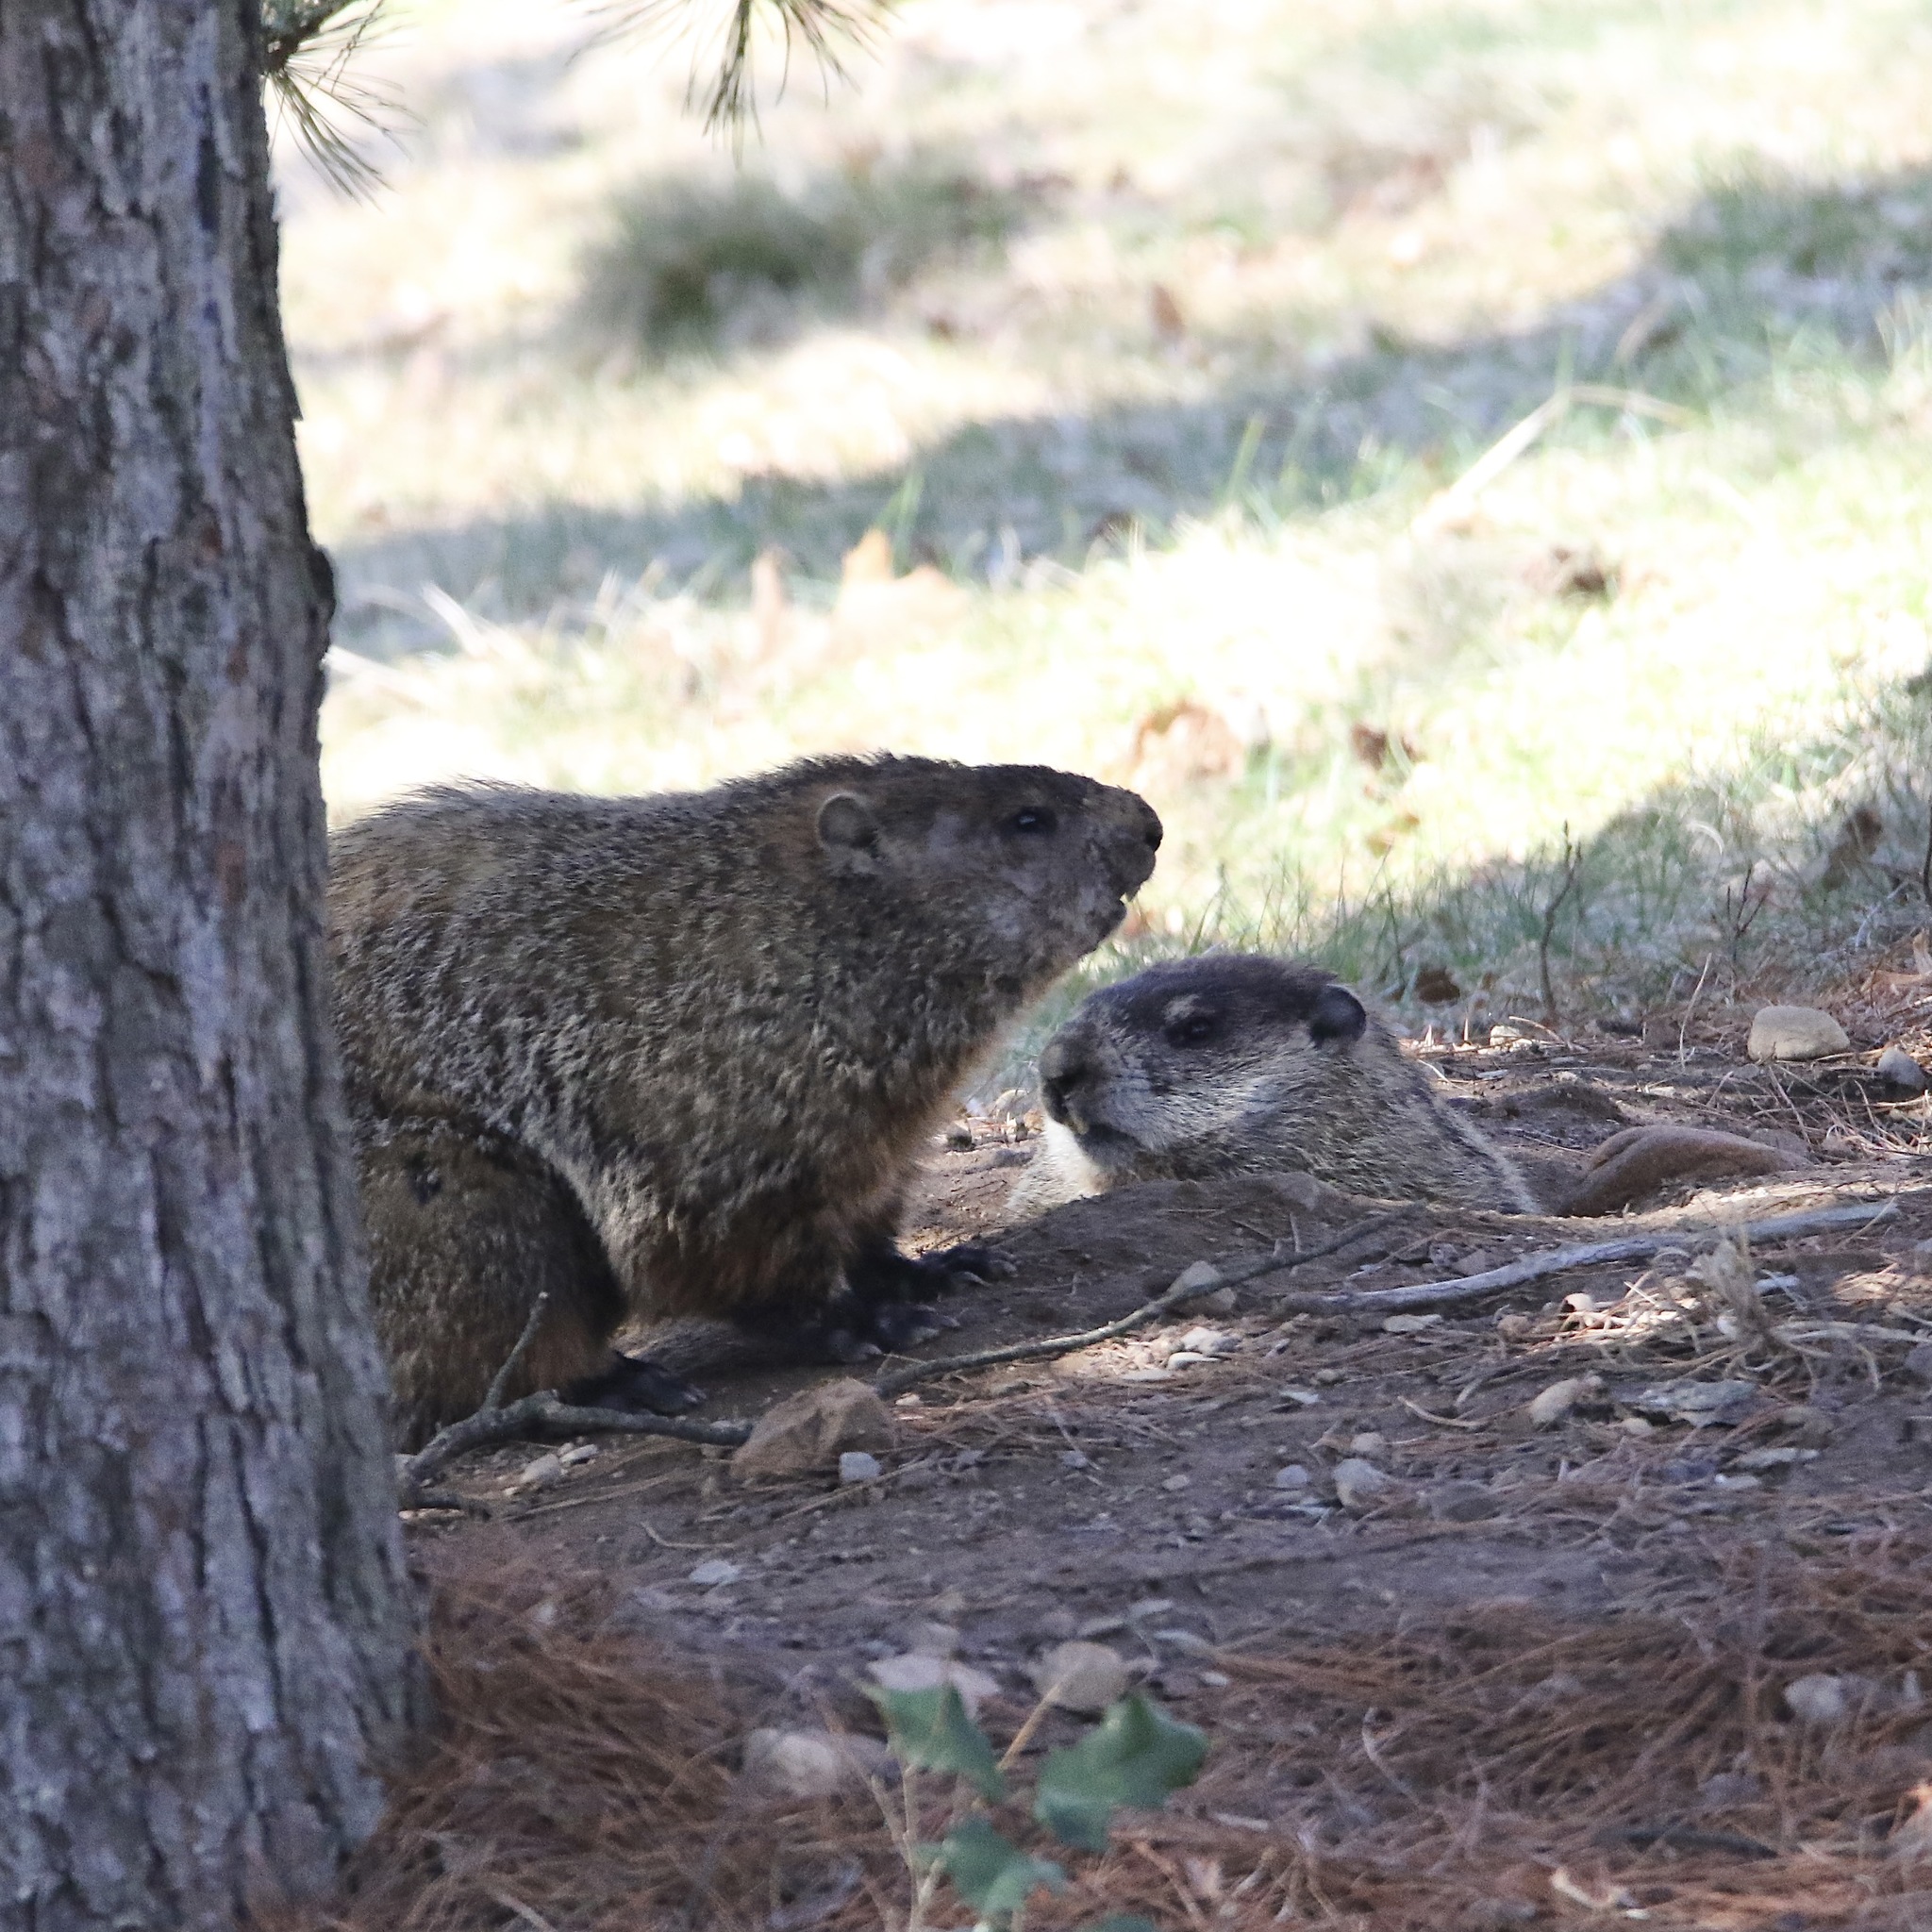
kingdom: Animalia
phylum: Chordata
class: Mammalia
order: Rodentia
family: Sciuridae
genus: Marmota
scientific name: Marmota monax
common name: Groundhog
